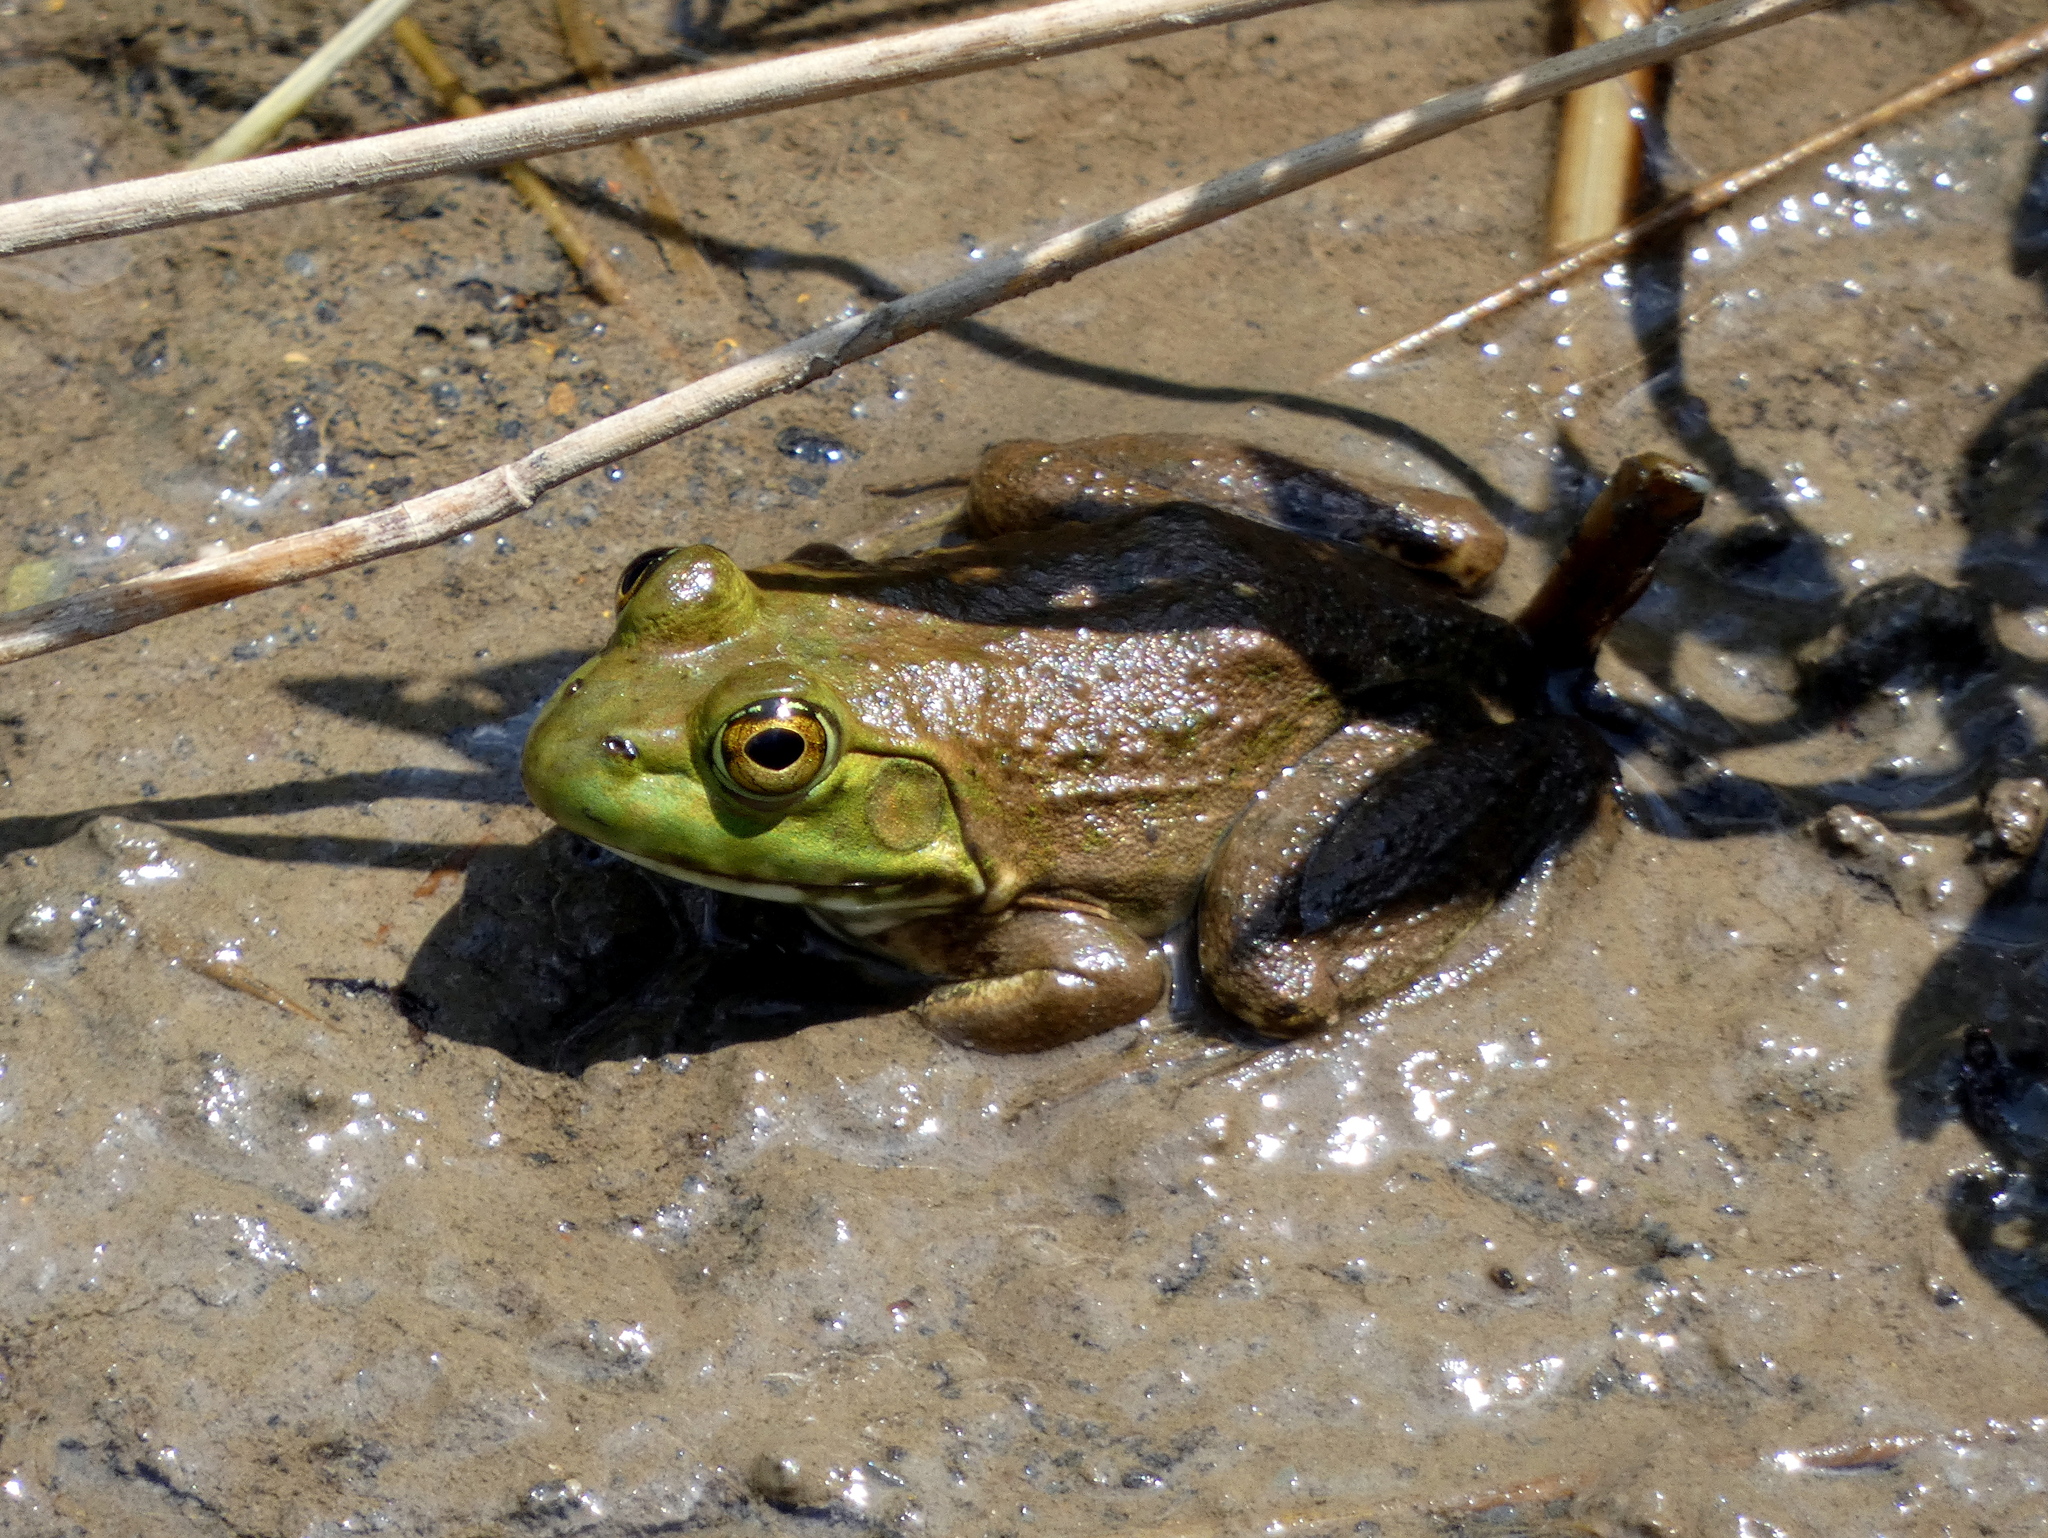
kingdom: Animalia
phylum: Chordata
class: Amphibia
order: Anura
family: Ranidae
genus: Lithobates
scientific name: Lithobates catesbeianus
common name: American bullfrog
